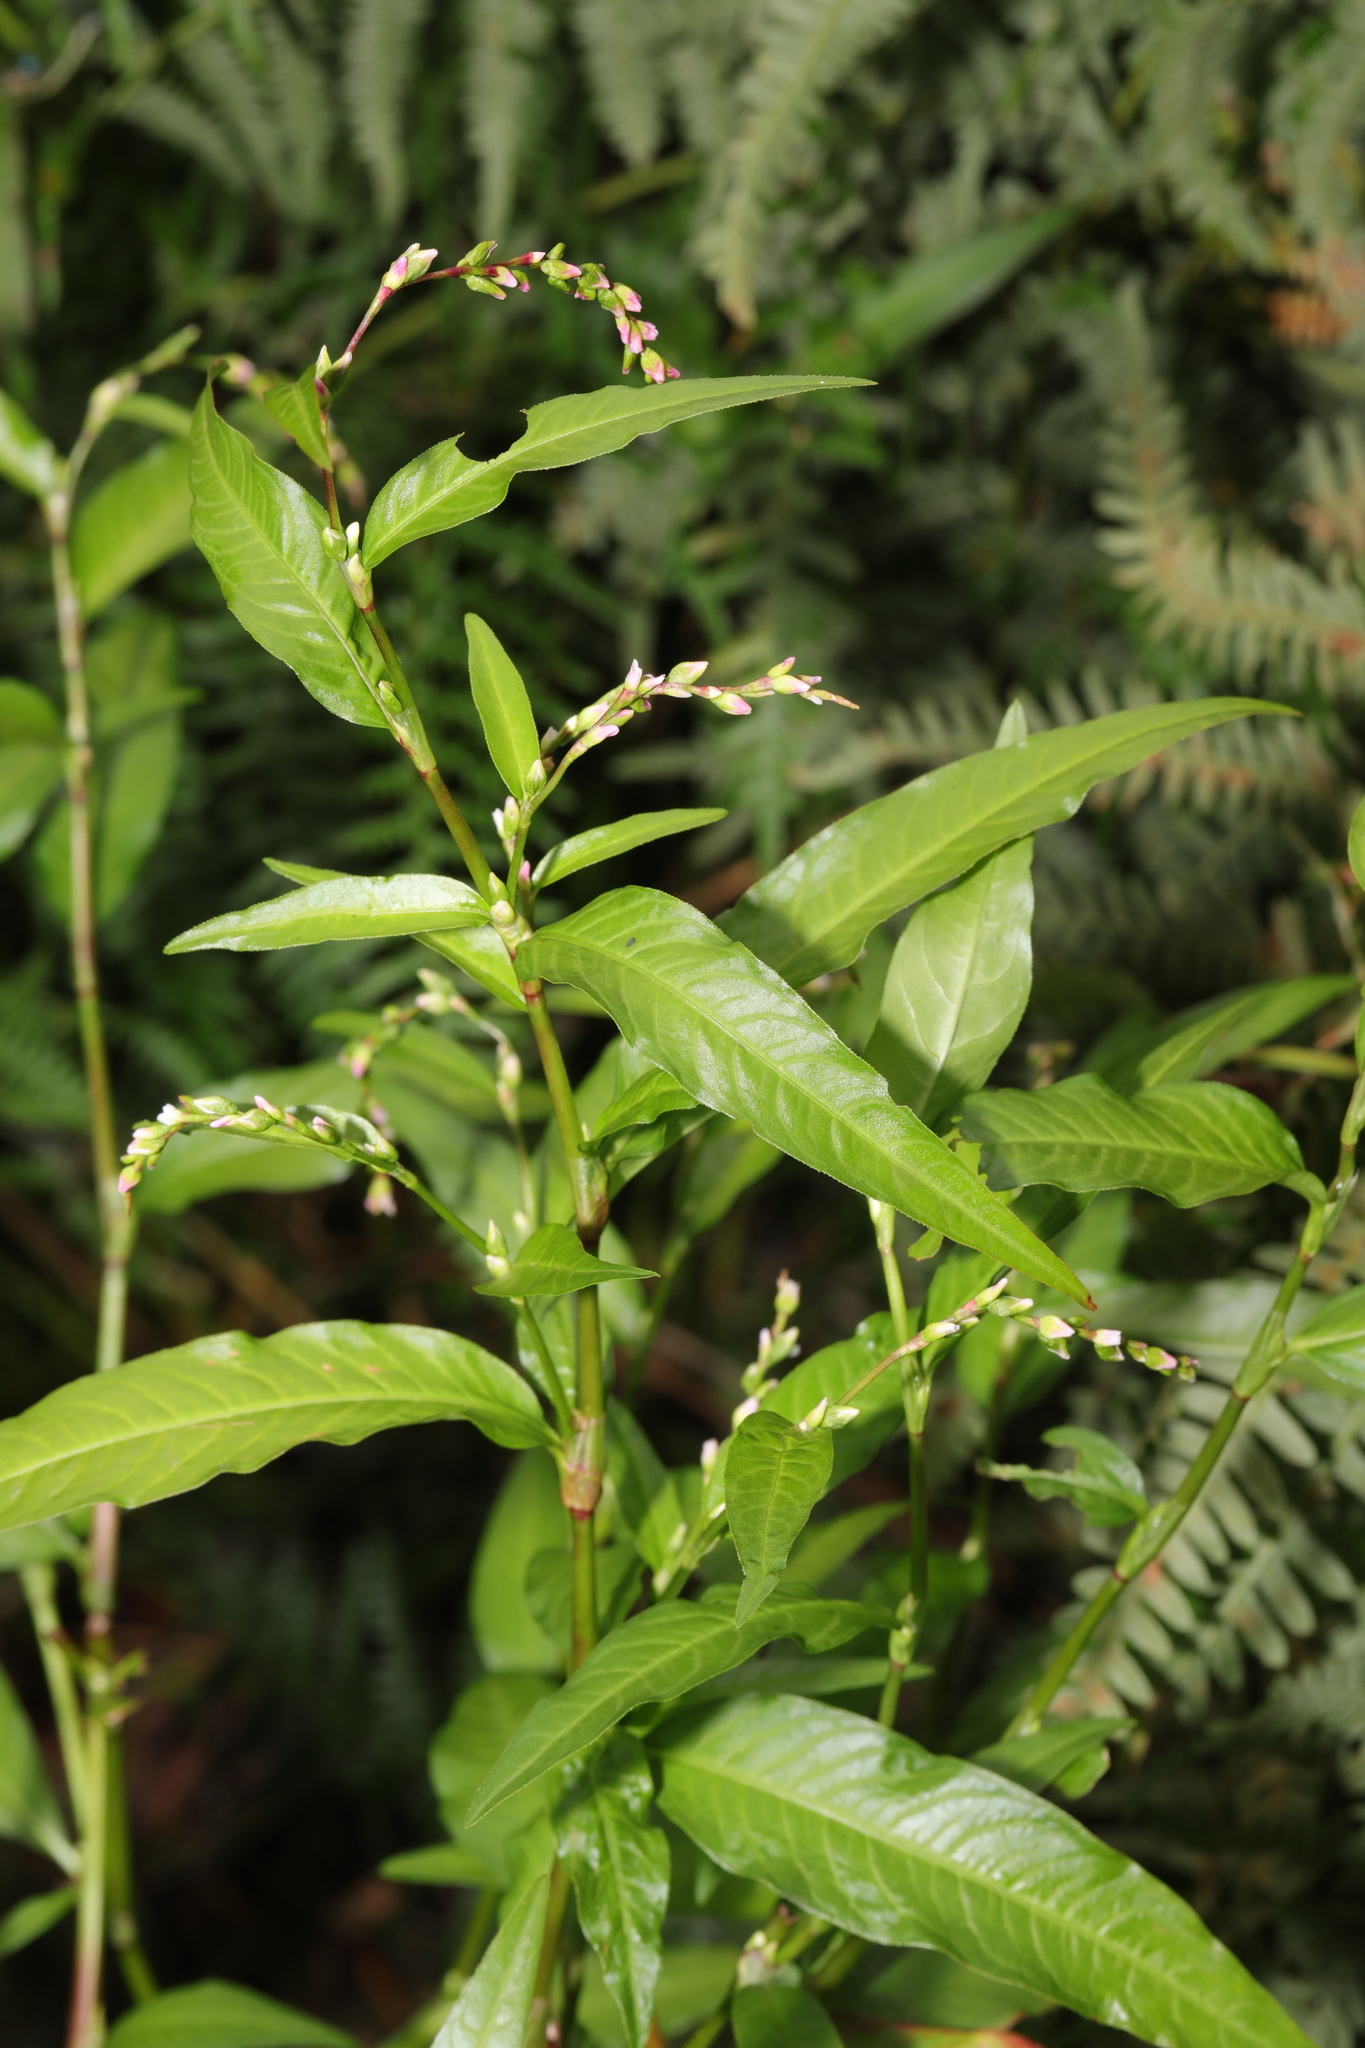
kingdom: Plantae
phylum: Tracheophyta
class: Magnoliopsida
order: Caryophyllales
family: Polygonaceae
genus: Persicaria
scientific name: Persicaria hydropiper
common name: Water-pepper
